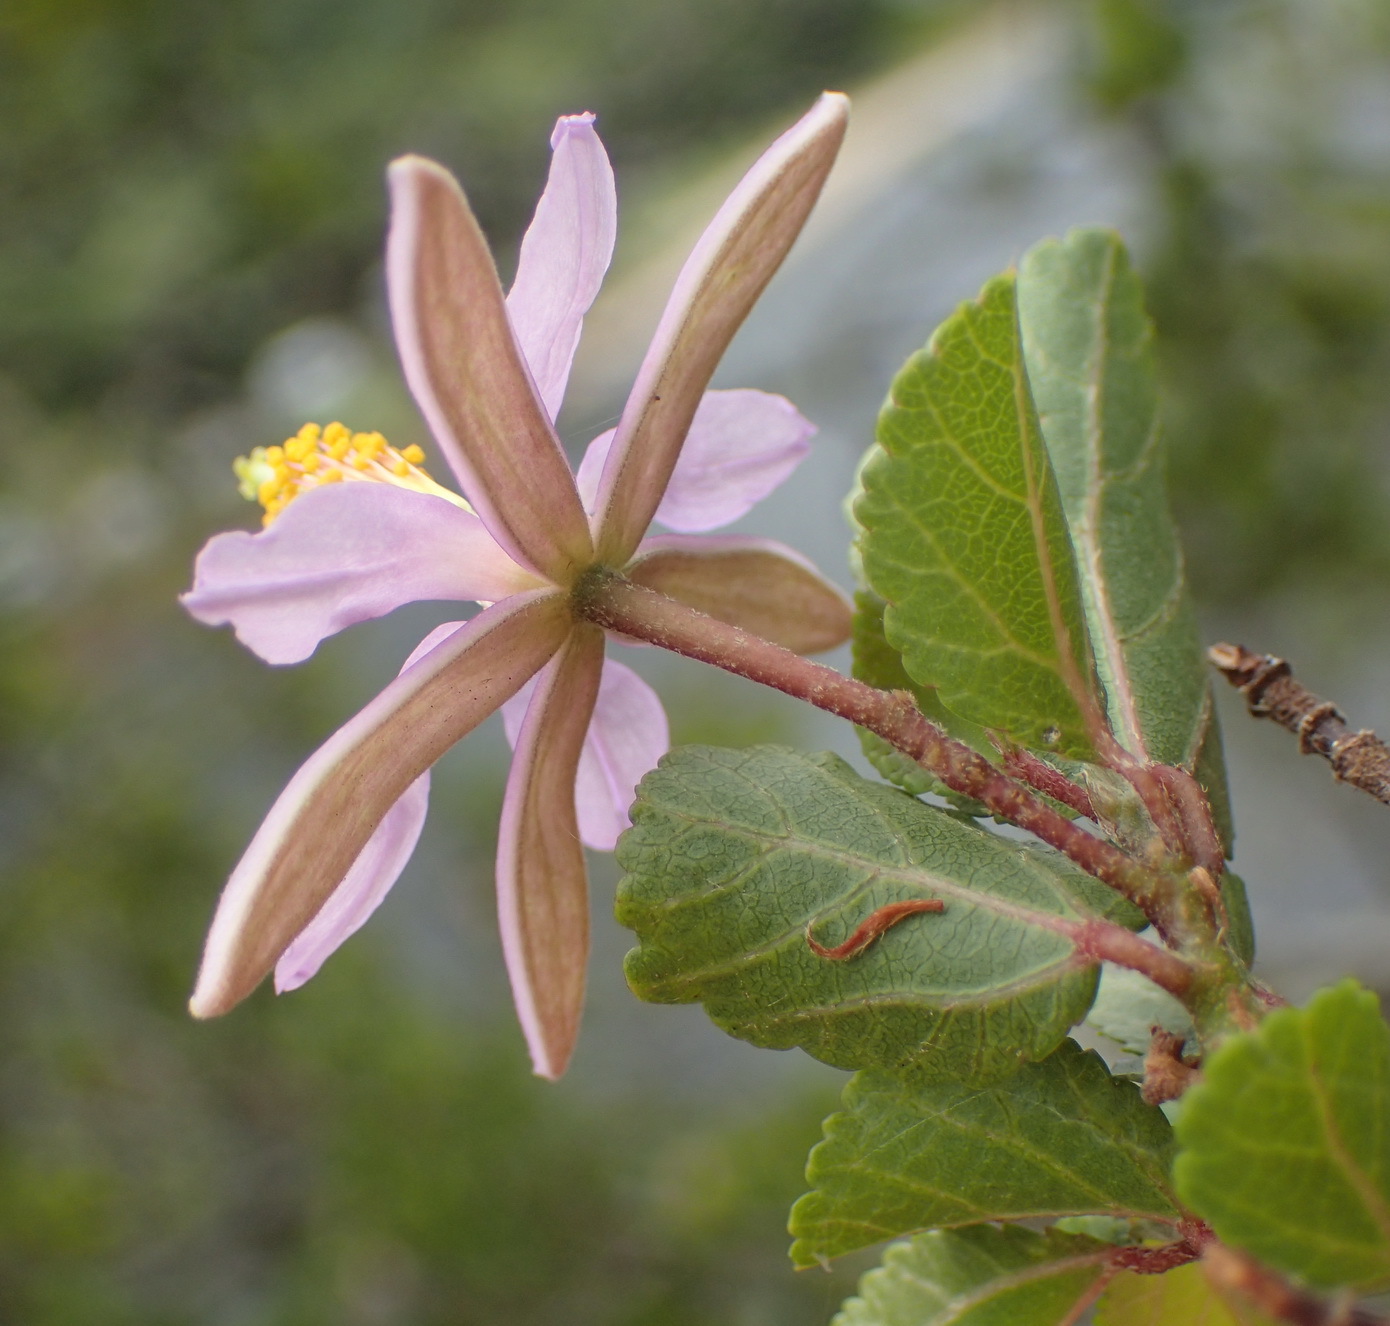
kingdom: Plantae
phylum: Tracheophyta
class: Magnoliopsida
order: Malvales
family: Malvaceae
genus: Grewia
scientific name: Grewia occidentalis
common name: Crossberry
